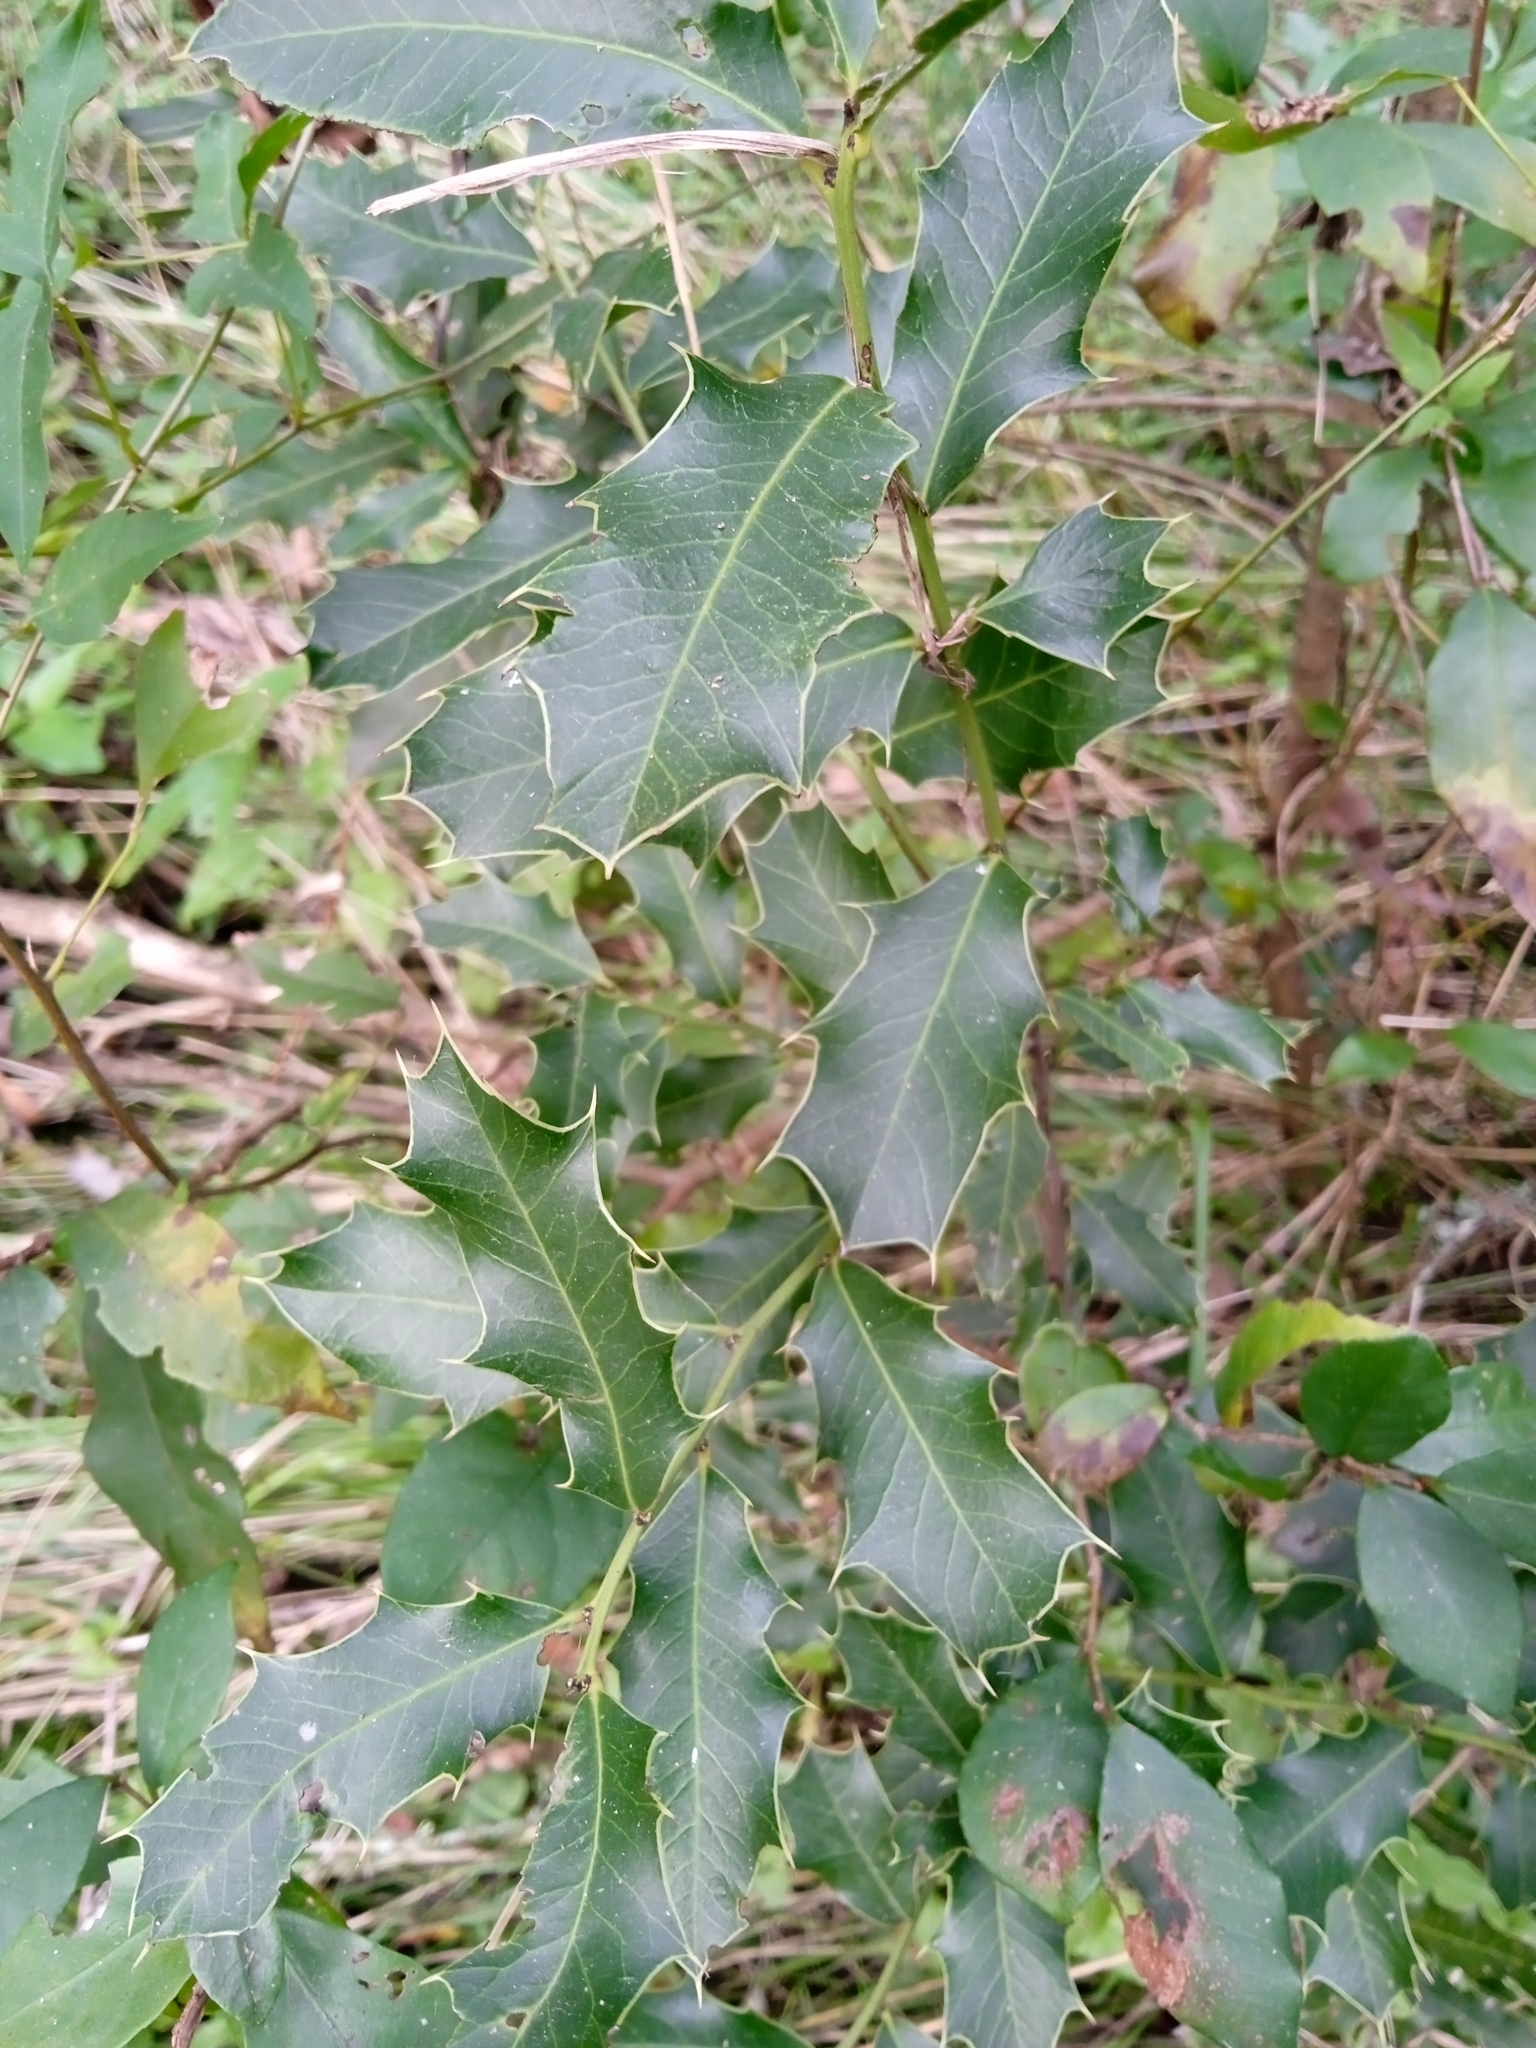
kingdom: Plantae
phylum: Tracheophyta
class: Magnoliopsida
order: Celastrales
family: Celastraceae
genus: Monteverdia
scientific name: Monteverdia
